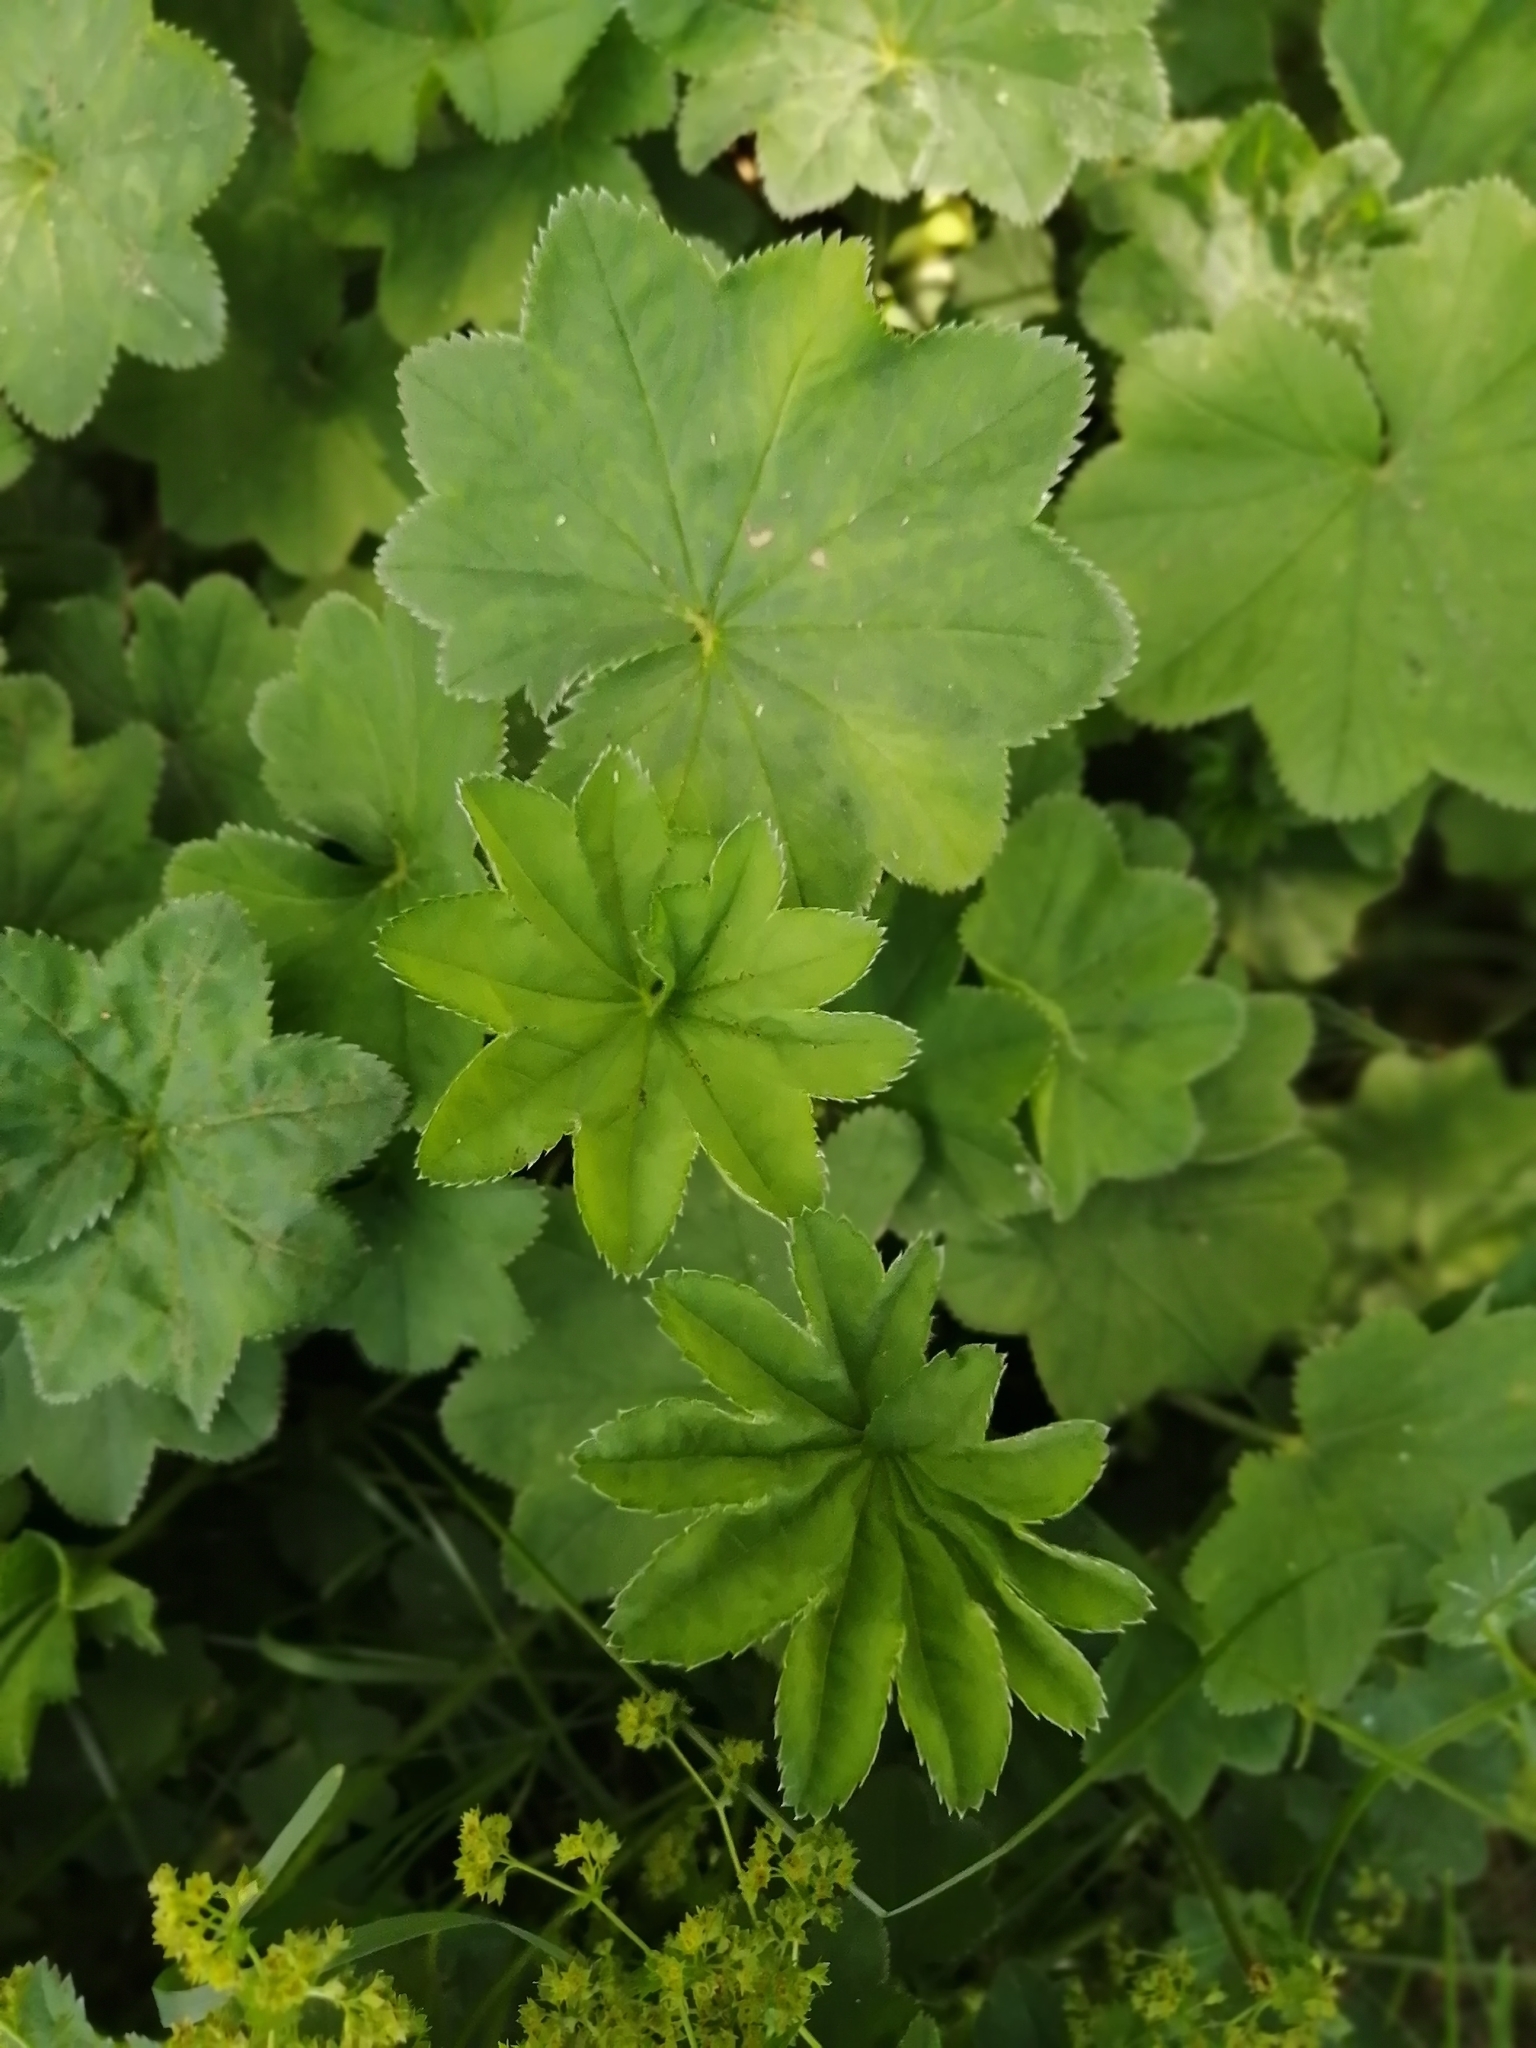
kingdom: Plantae
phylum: Tracheophyta
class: Magnoliopsida
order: Rosales
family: Rosaceae
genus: Alchemilla
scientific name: Alchemilla
